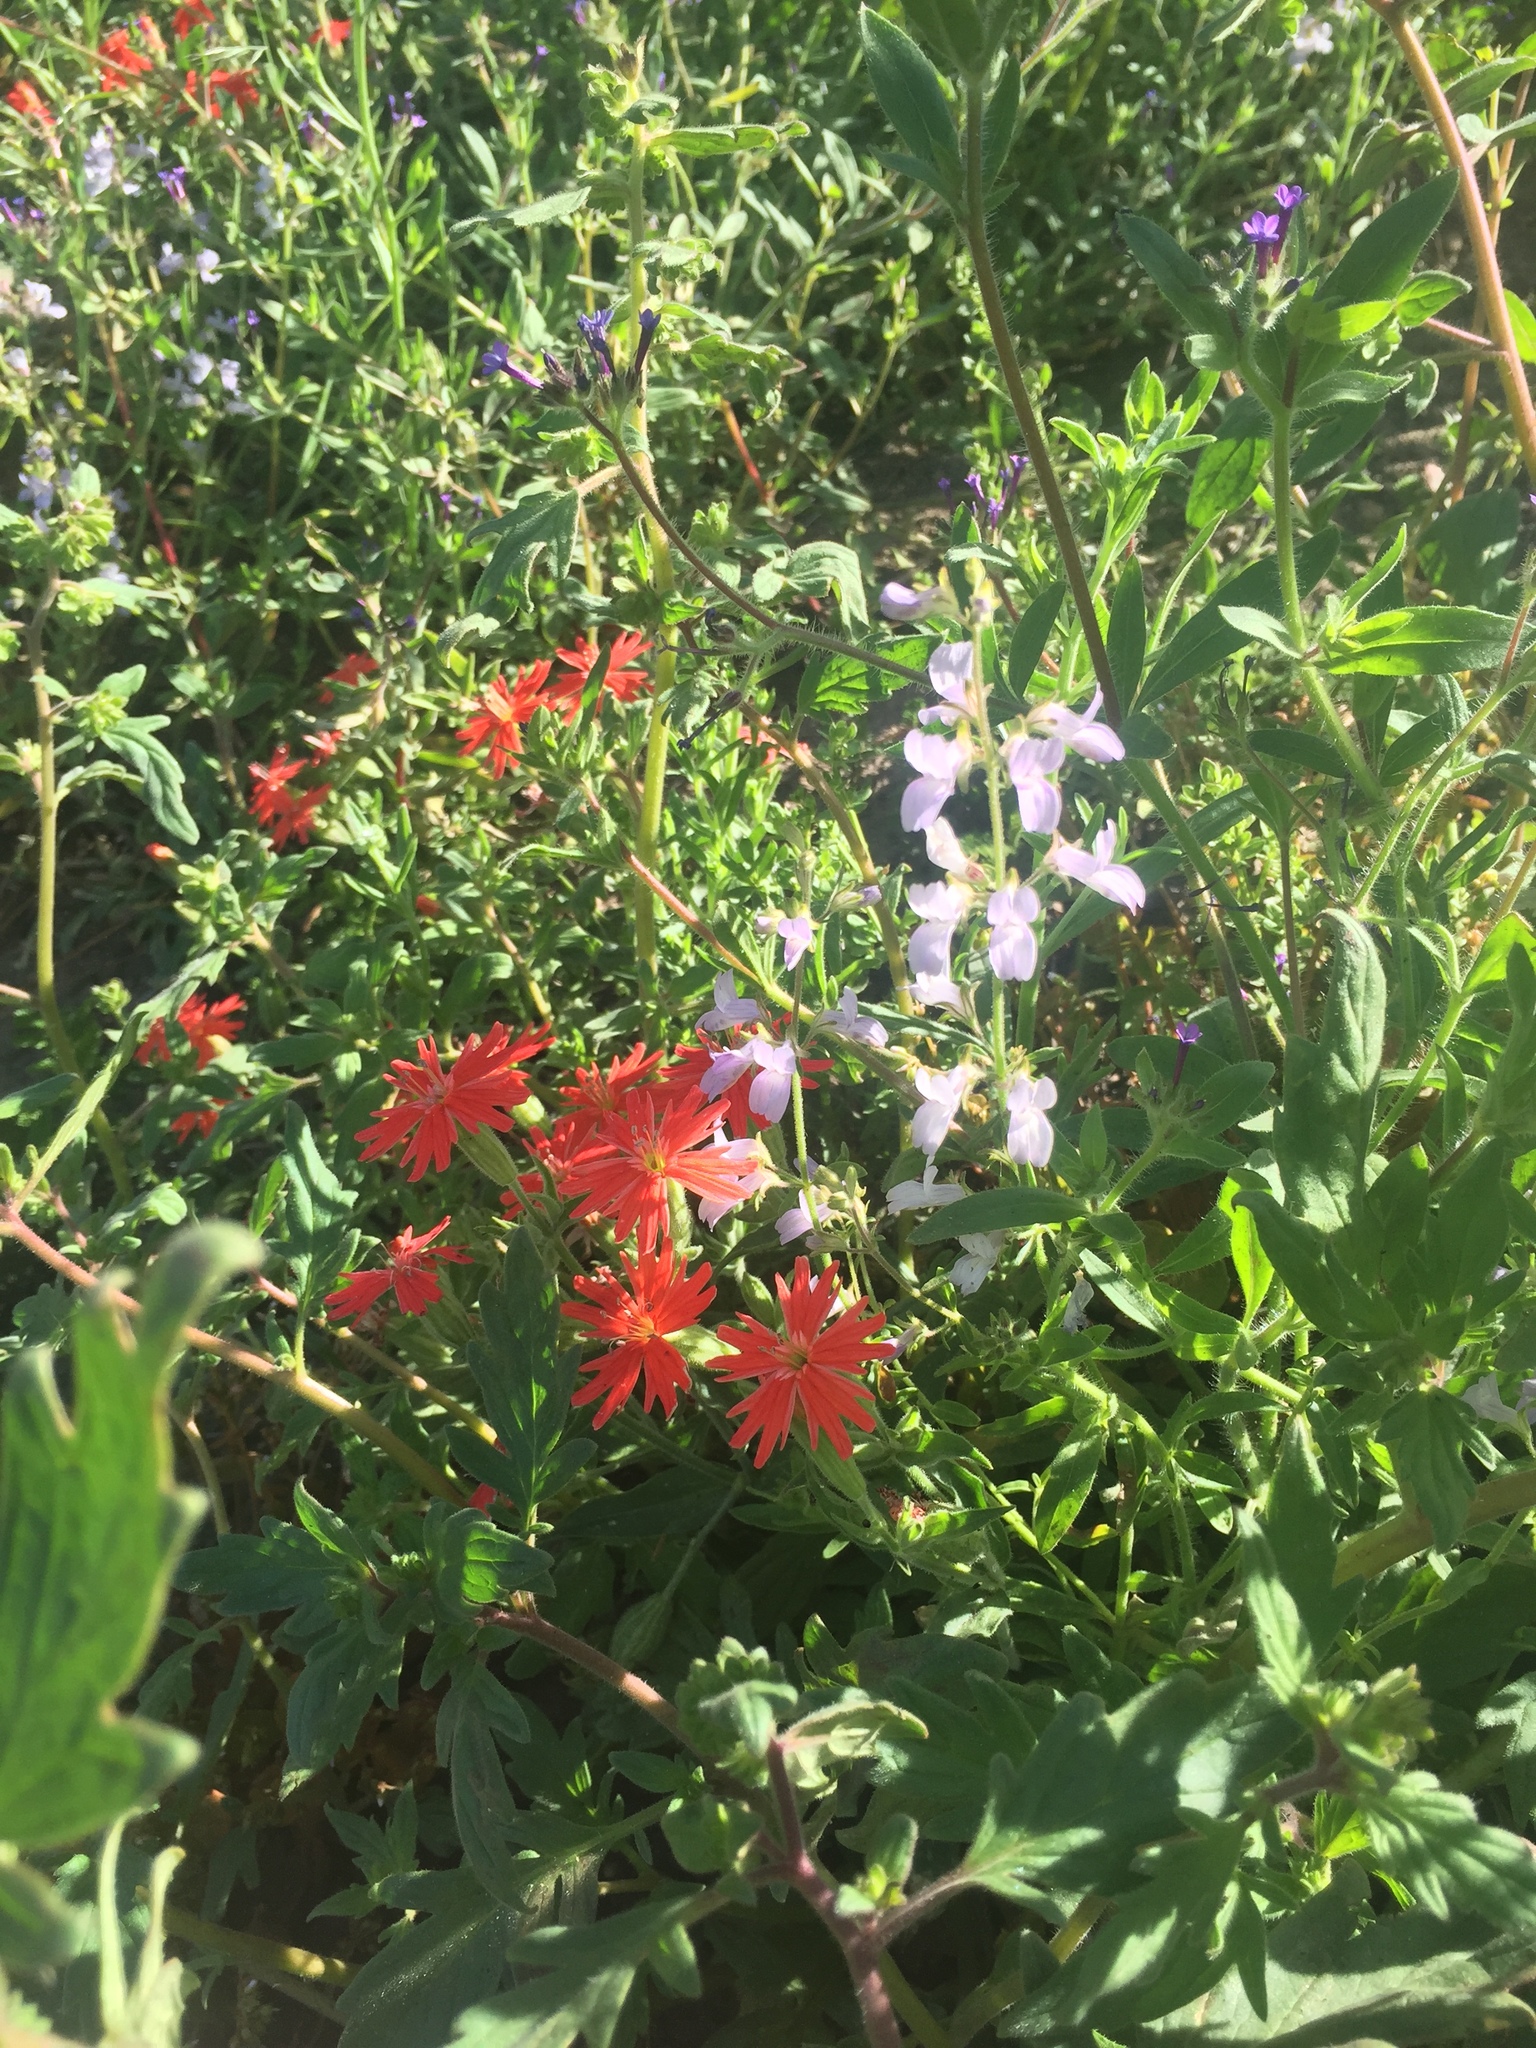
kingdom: Plantae
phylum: Tracheophyta
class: Magnoliopsida
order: Caryophyllales
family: Caryophyllaceae
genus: Silene
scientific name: Silene laciniata
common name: Indian-pink
